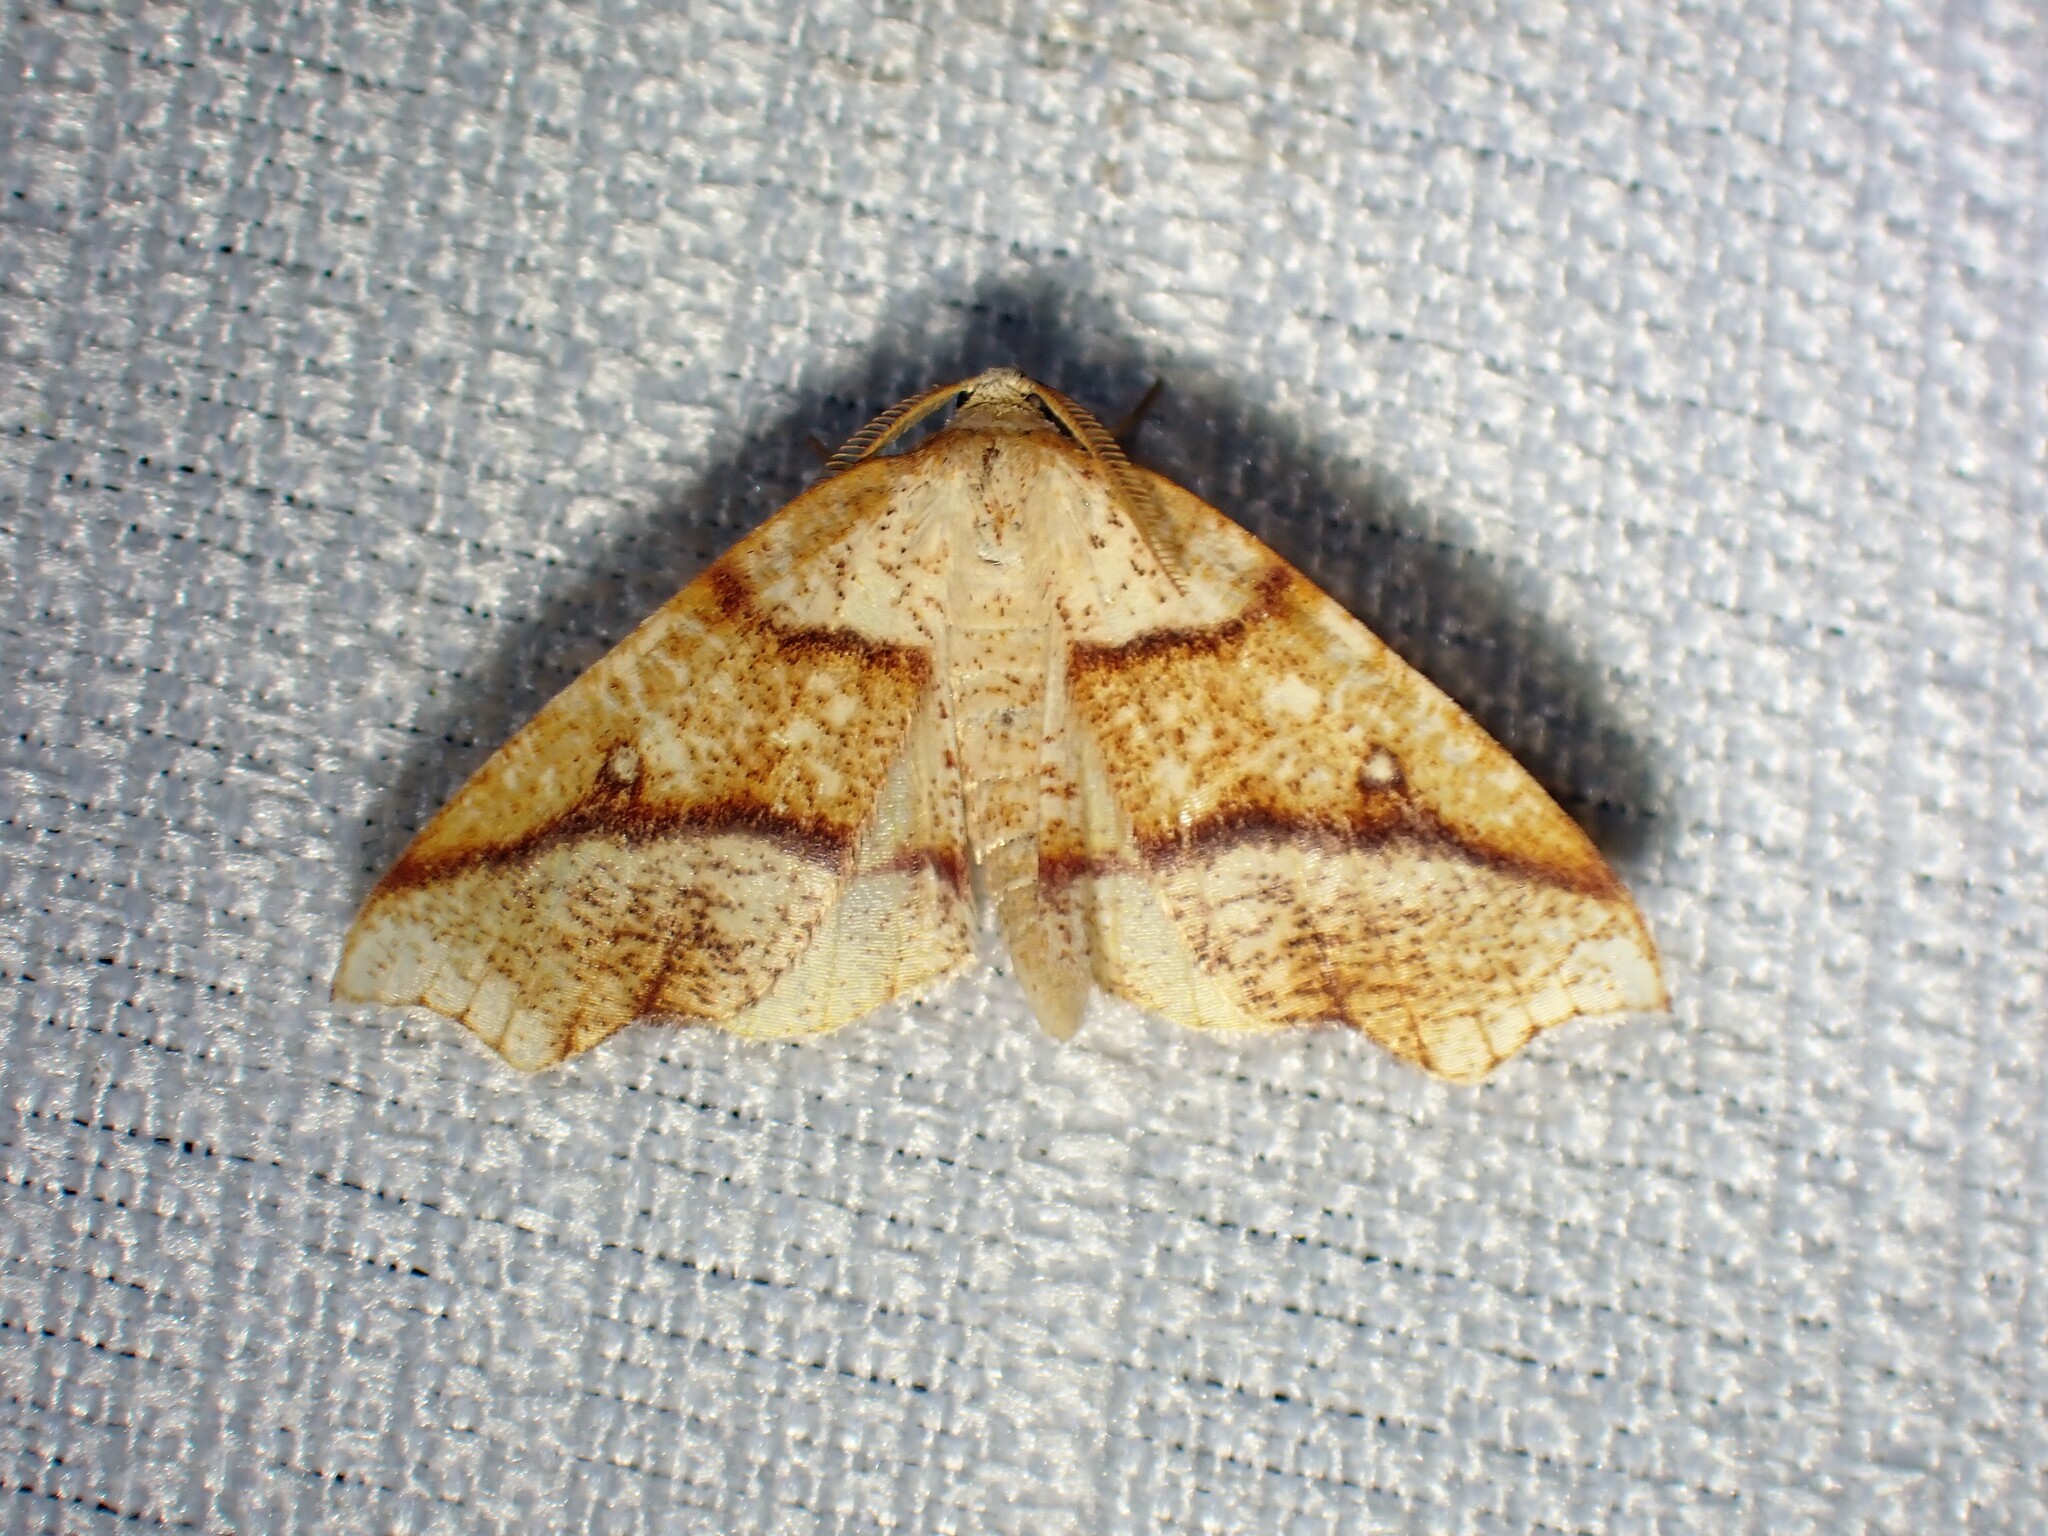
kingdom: Animalia
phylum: Arthropoda
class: Insecta
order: Lepidoptera
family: Geometridae
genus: Plagodis
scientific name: Plagodis alcoolaria
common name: Hollow-spotted plagodis
